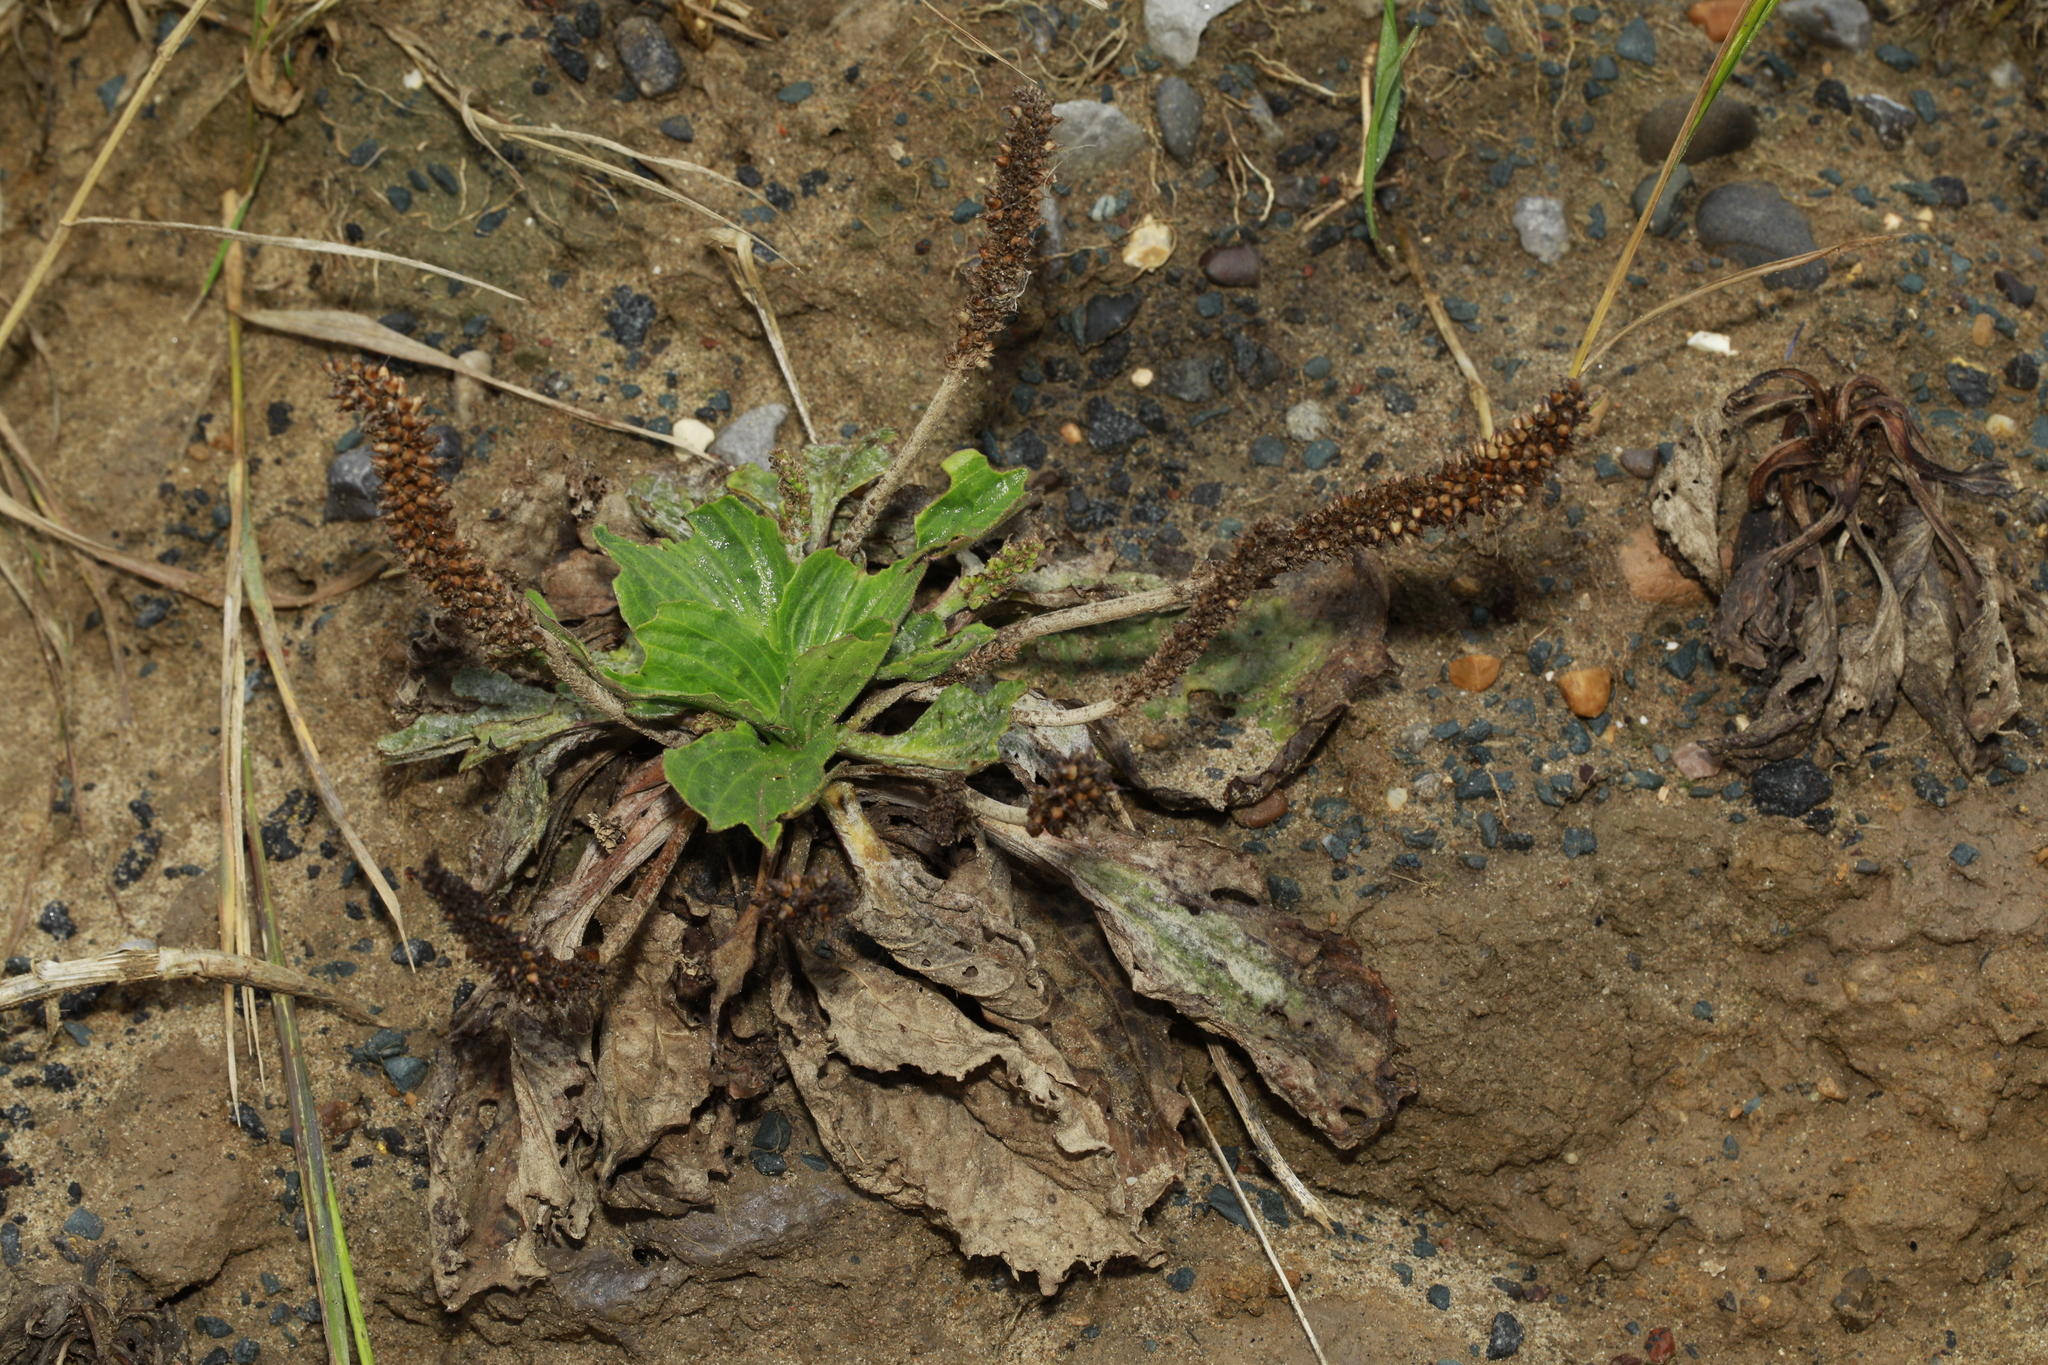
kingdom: Plantae
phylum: Tracheophyta
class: Magnoliopsida
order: Lamiales
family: Plantaginaceae
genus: Plantago
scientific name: Plantago major
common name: Common plantain
